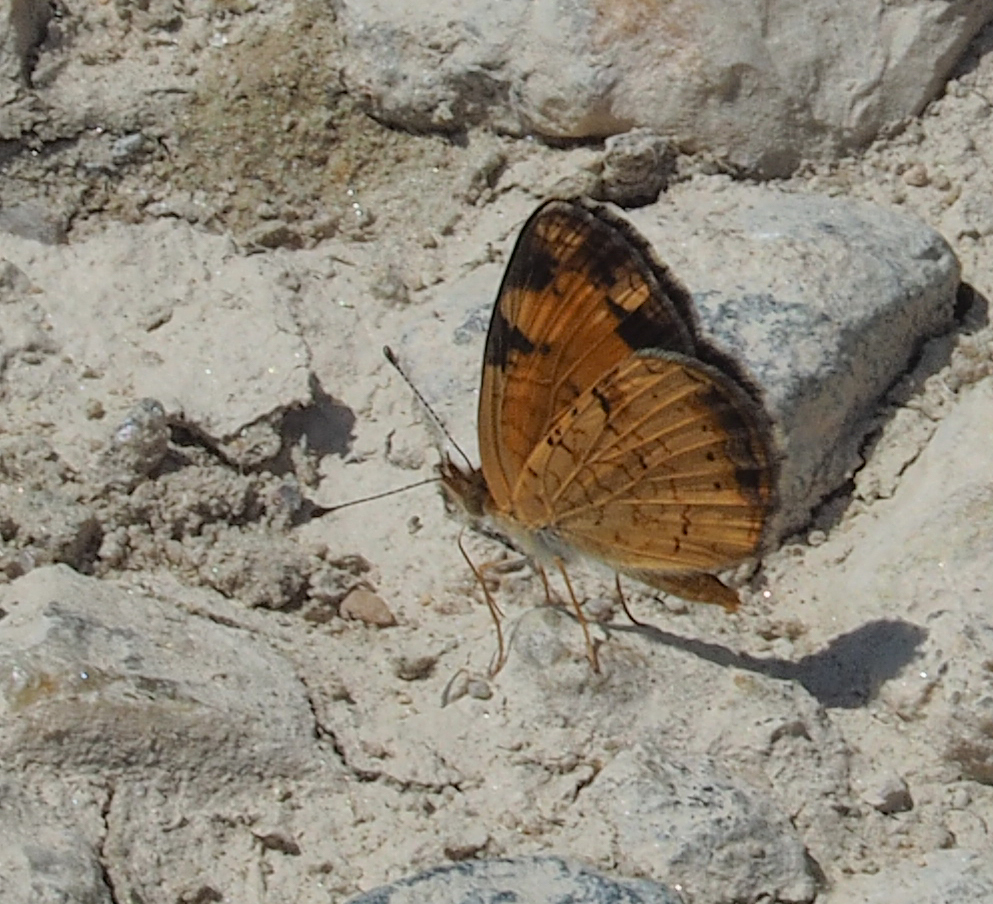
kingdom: Animalia
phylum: Arthropoda
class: Insecta
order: Lepidoptera
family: Nymphalidae
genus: Phyciodes
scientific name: Phyciodes tharos
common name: Pearl crescent
